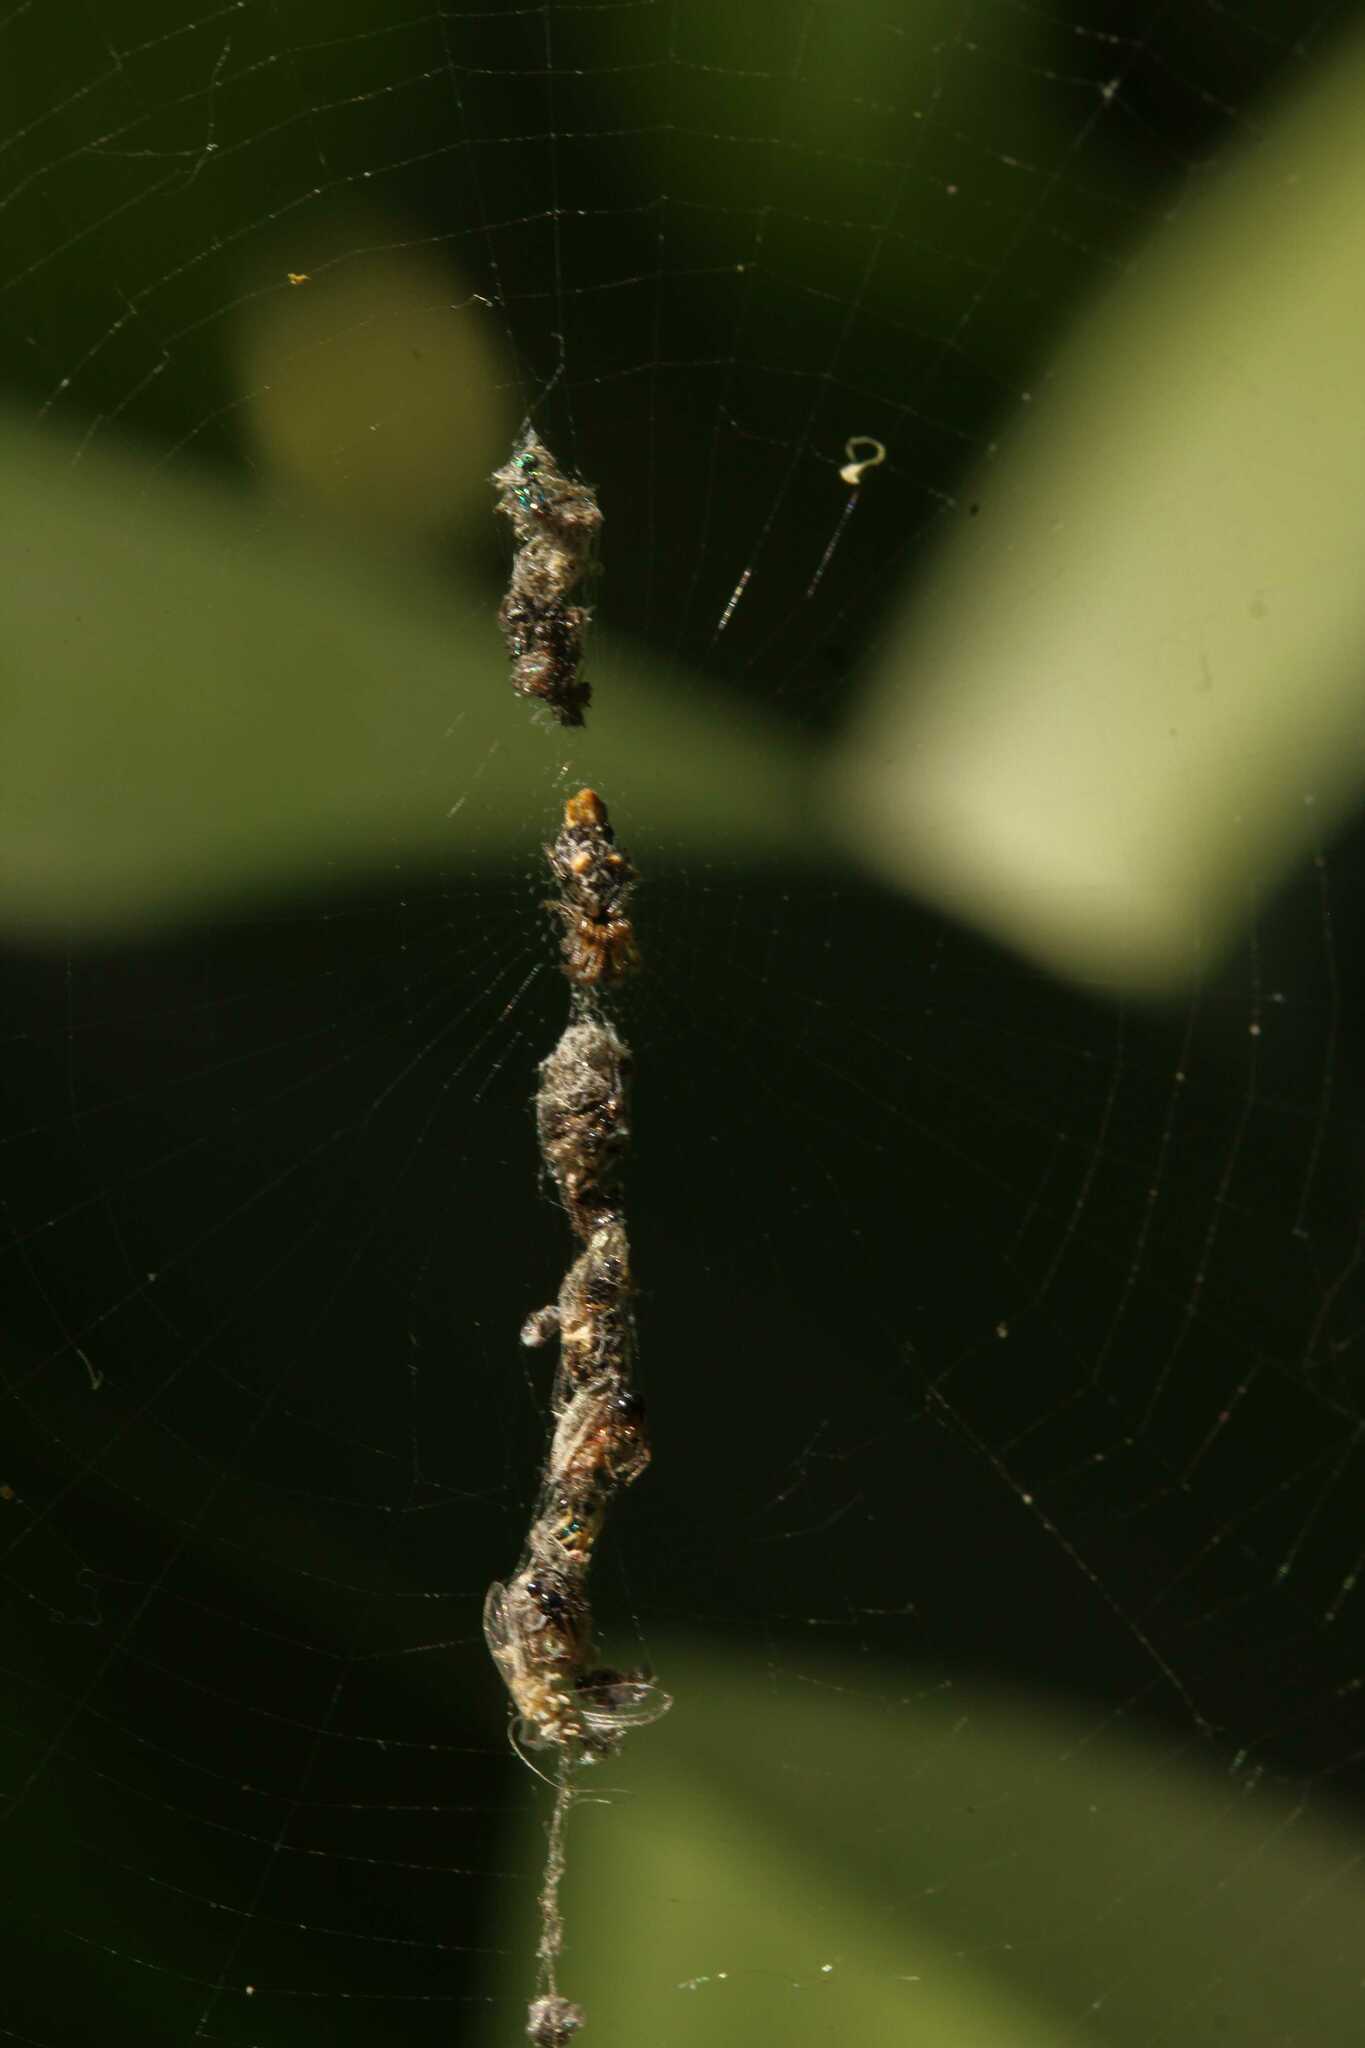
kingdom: Animalia
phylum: Arthropoda
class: Arachnida
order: Araneae
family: Araneidae
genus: Cyclosa
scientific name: Cyclosa
